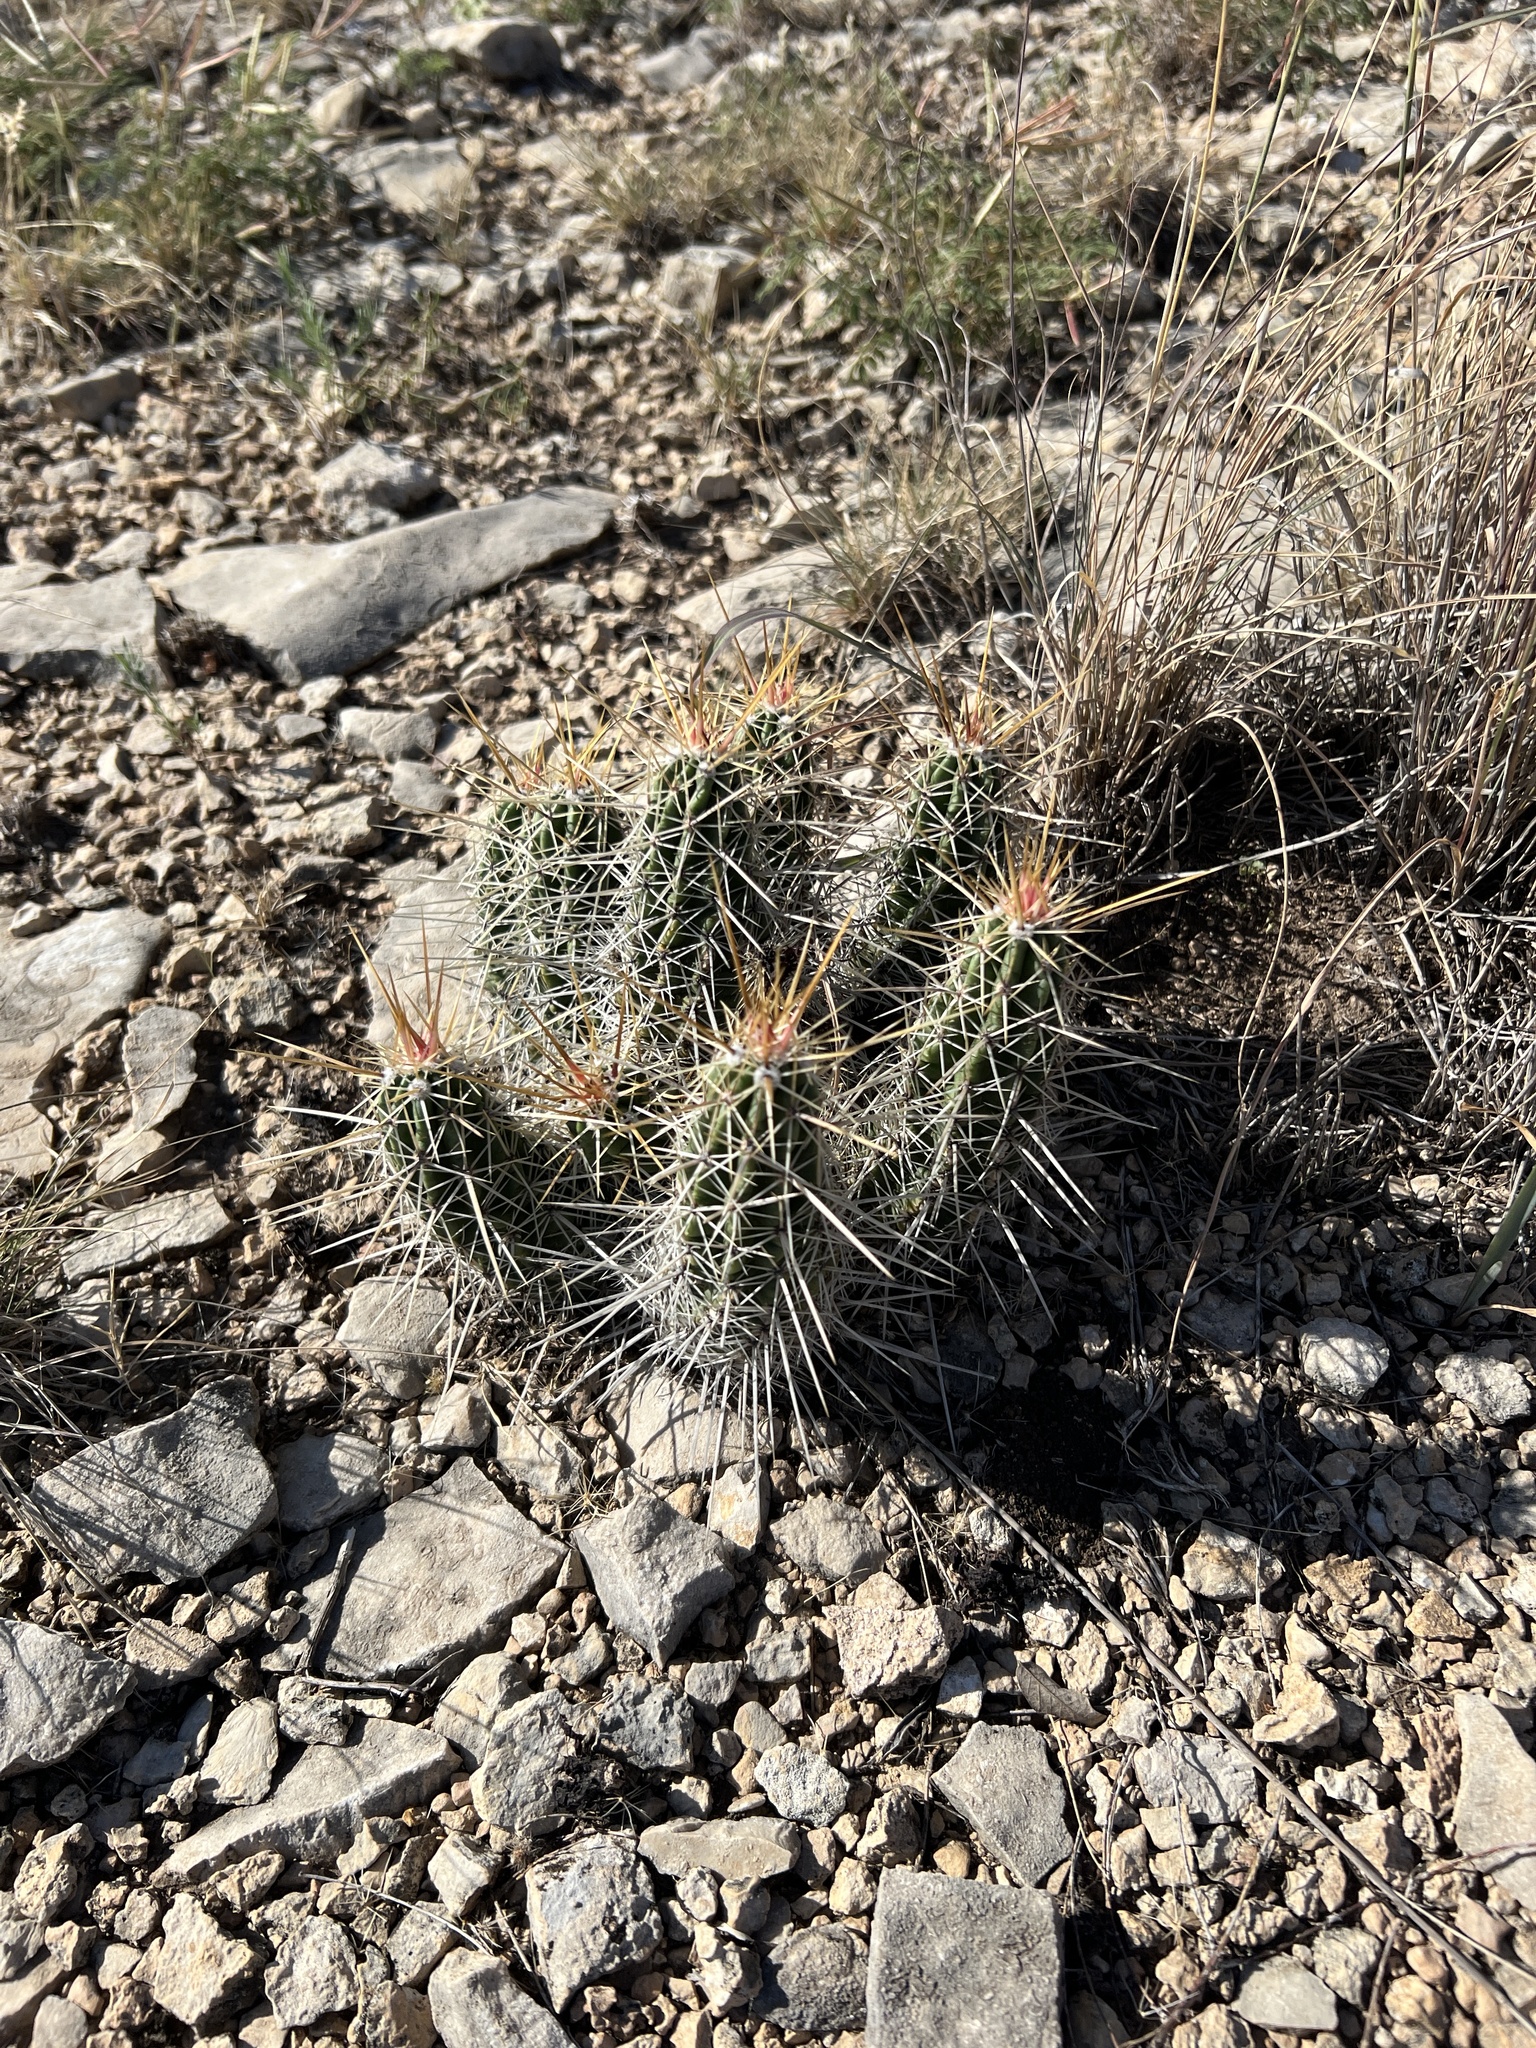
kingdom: Plantae
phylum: Tracheophyta
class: Magnoliopsida
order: Caryophyllales
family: Cactaceae
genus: Echinocereus
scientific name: Echinocereus enneacanthus
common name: Pitaya
